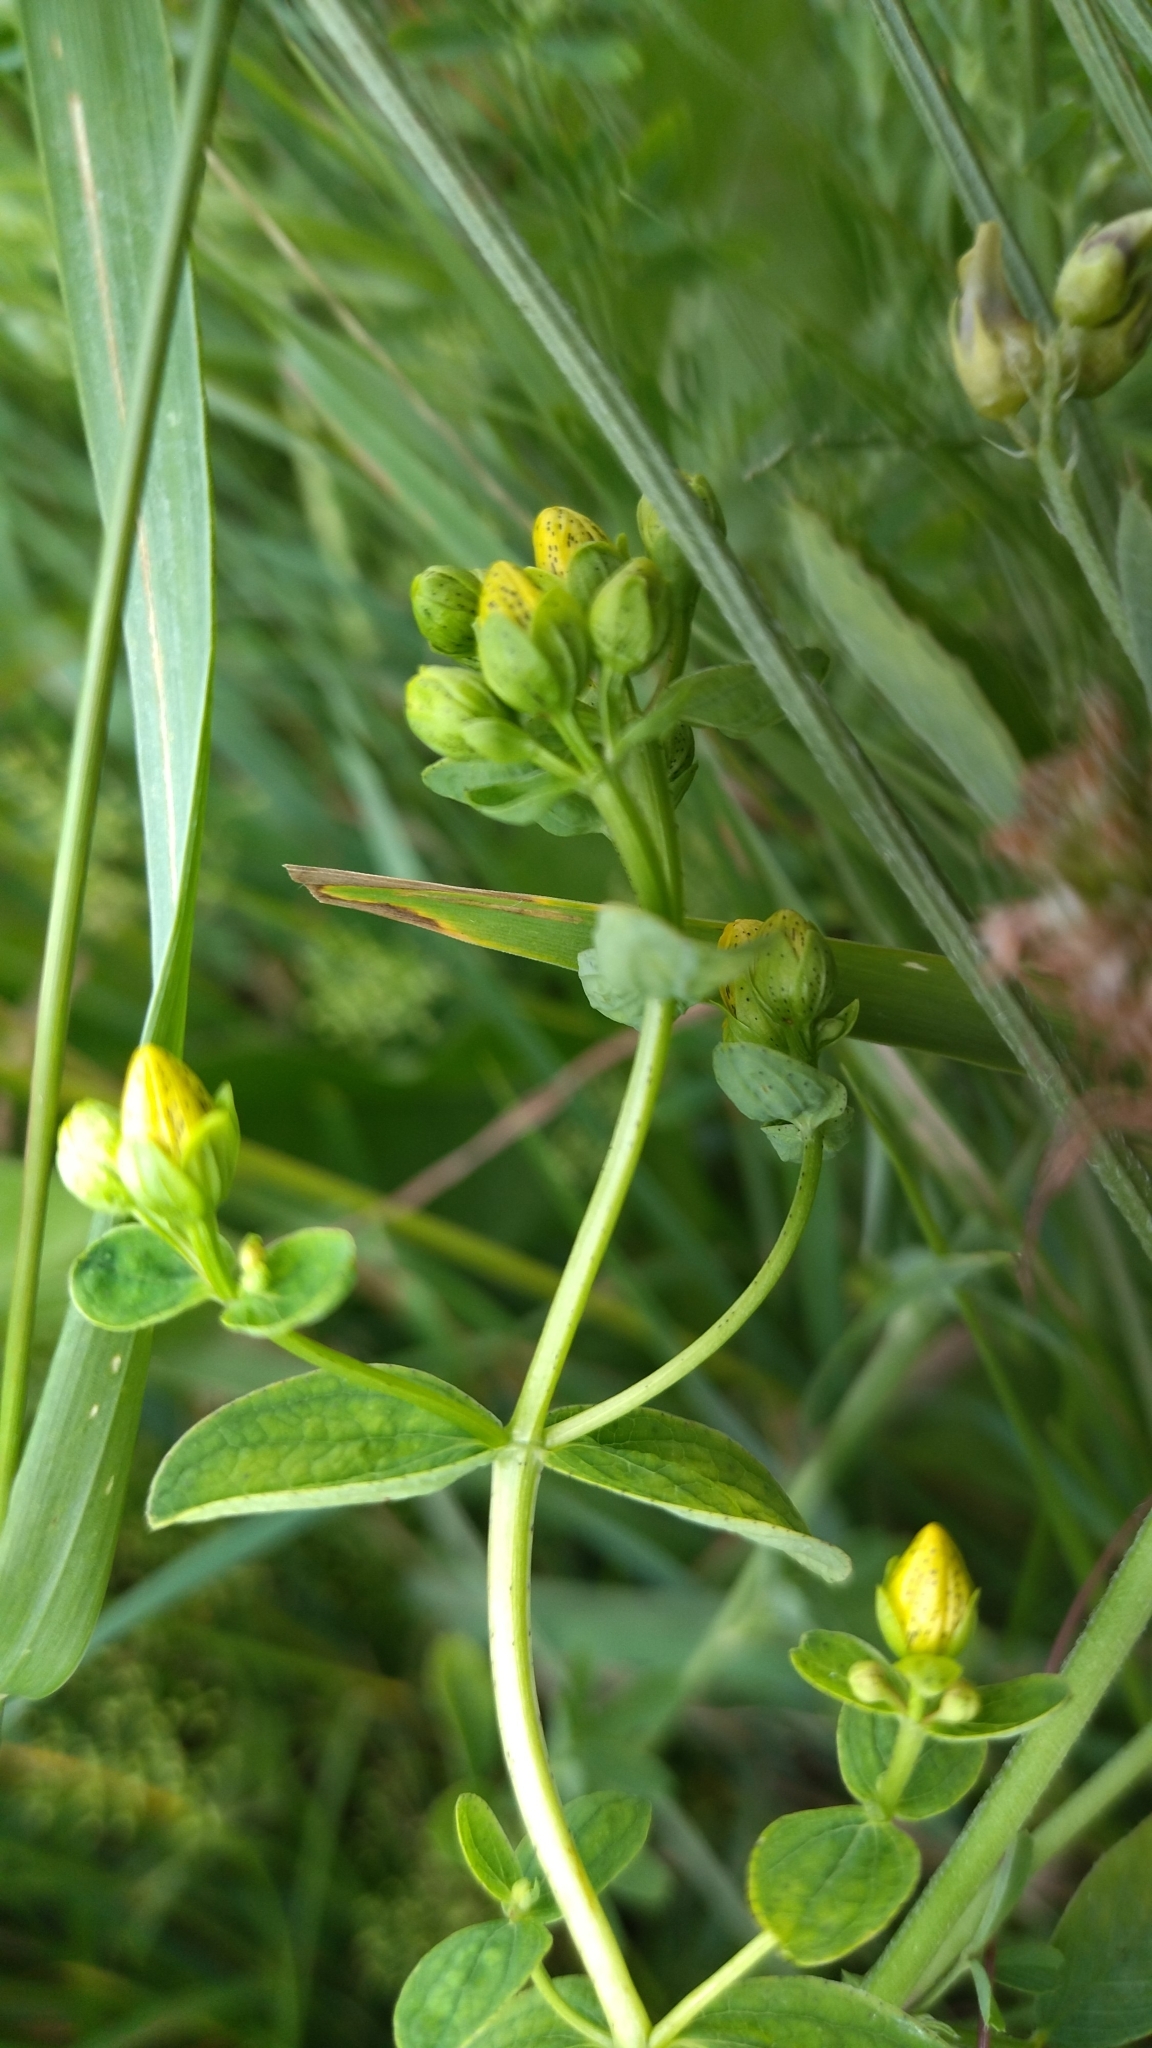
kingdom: Plantae
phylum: Tracheophyta
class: Magnoliopsida
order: Malpighiales
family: Hypericaceae
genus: Hypericum
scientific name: Hypericum maculatum
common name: Imperforate st. john's-wort
